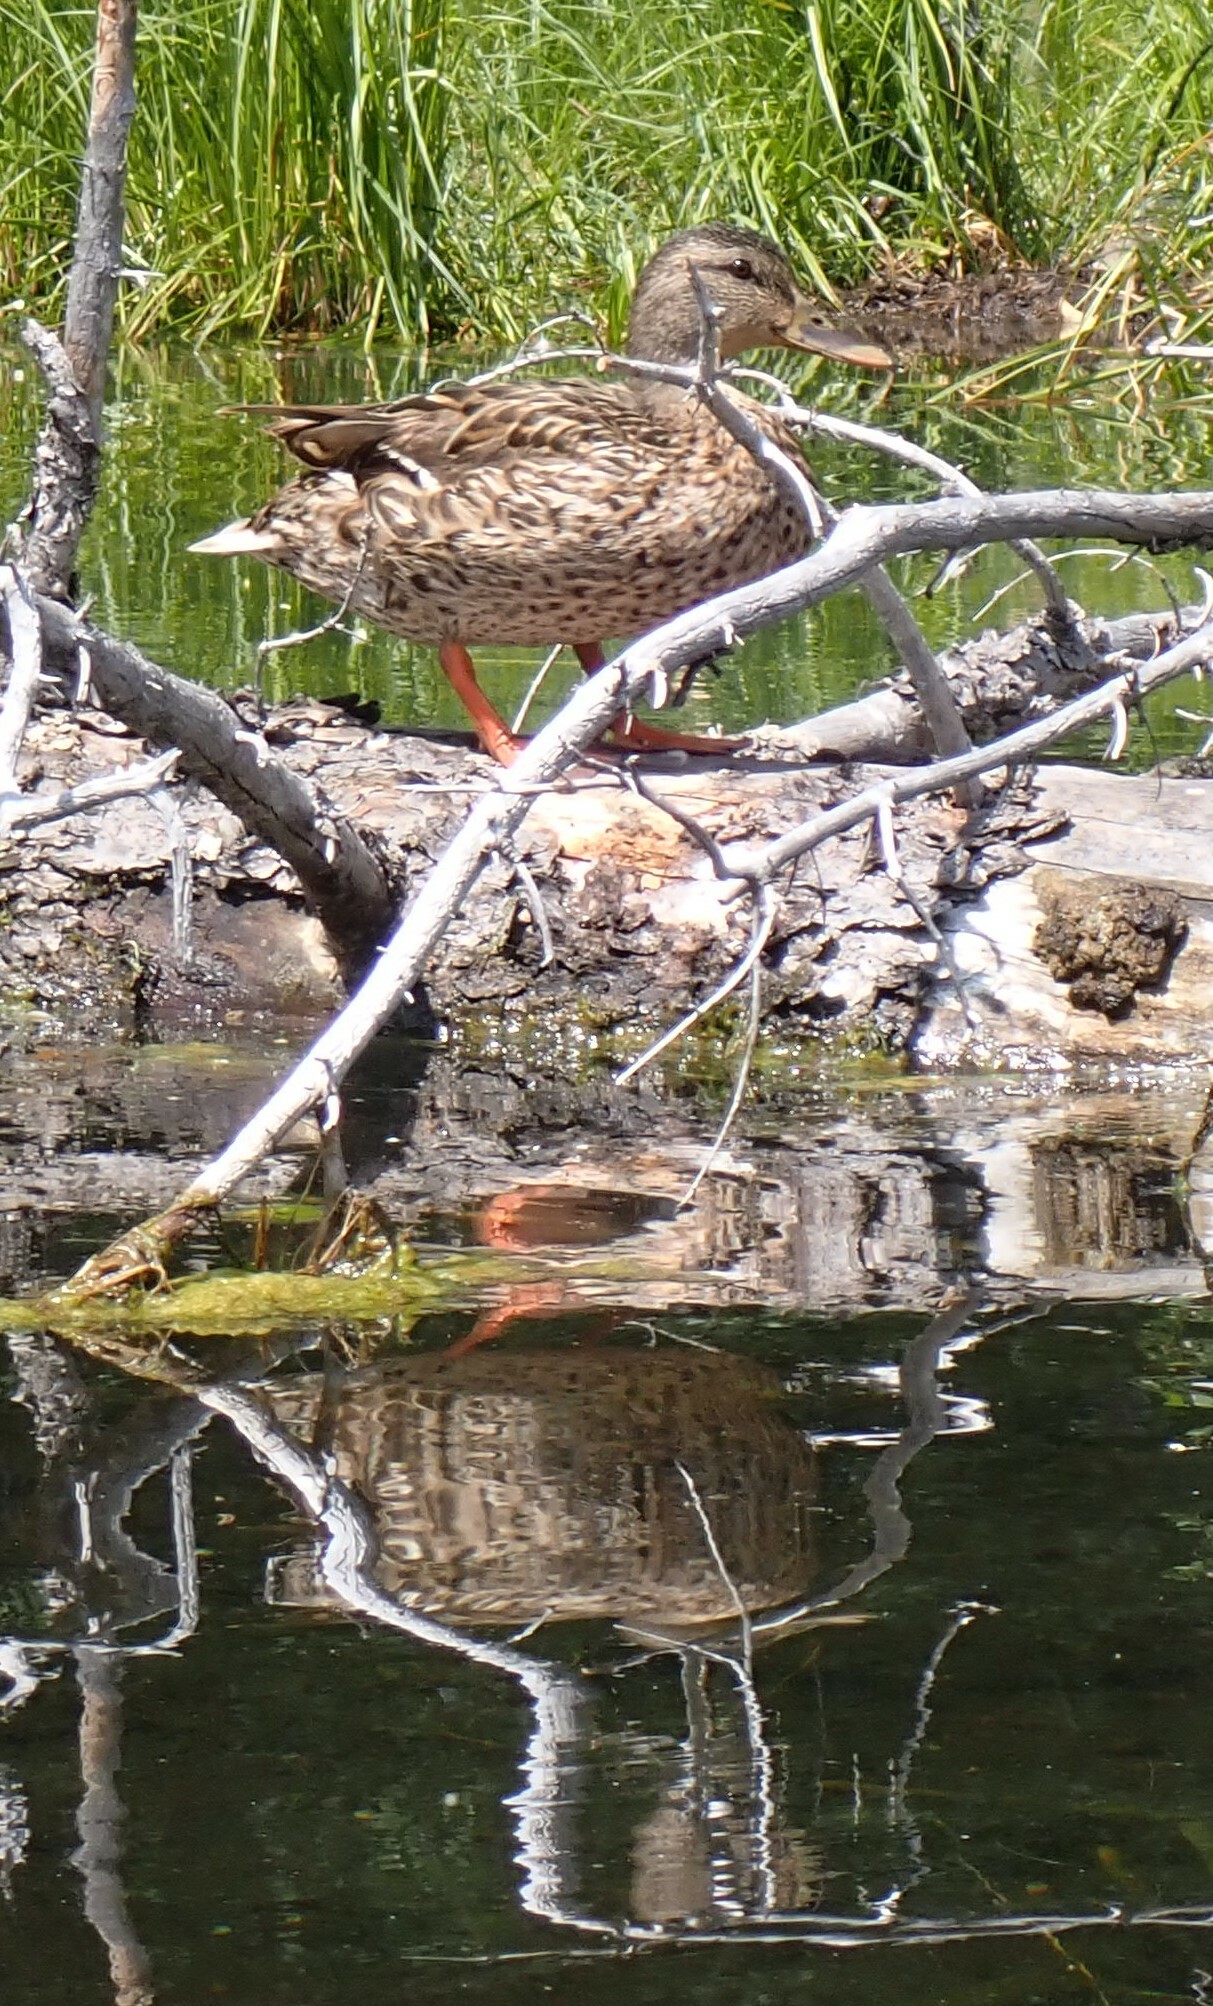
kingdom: Animalia
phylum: Chordata
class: Aves
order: Anseriformes
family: Anatidae
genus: Anas
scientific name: Anas platyrhynchos
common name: Mallard
